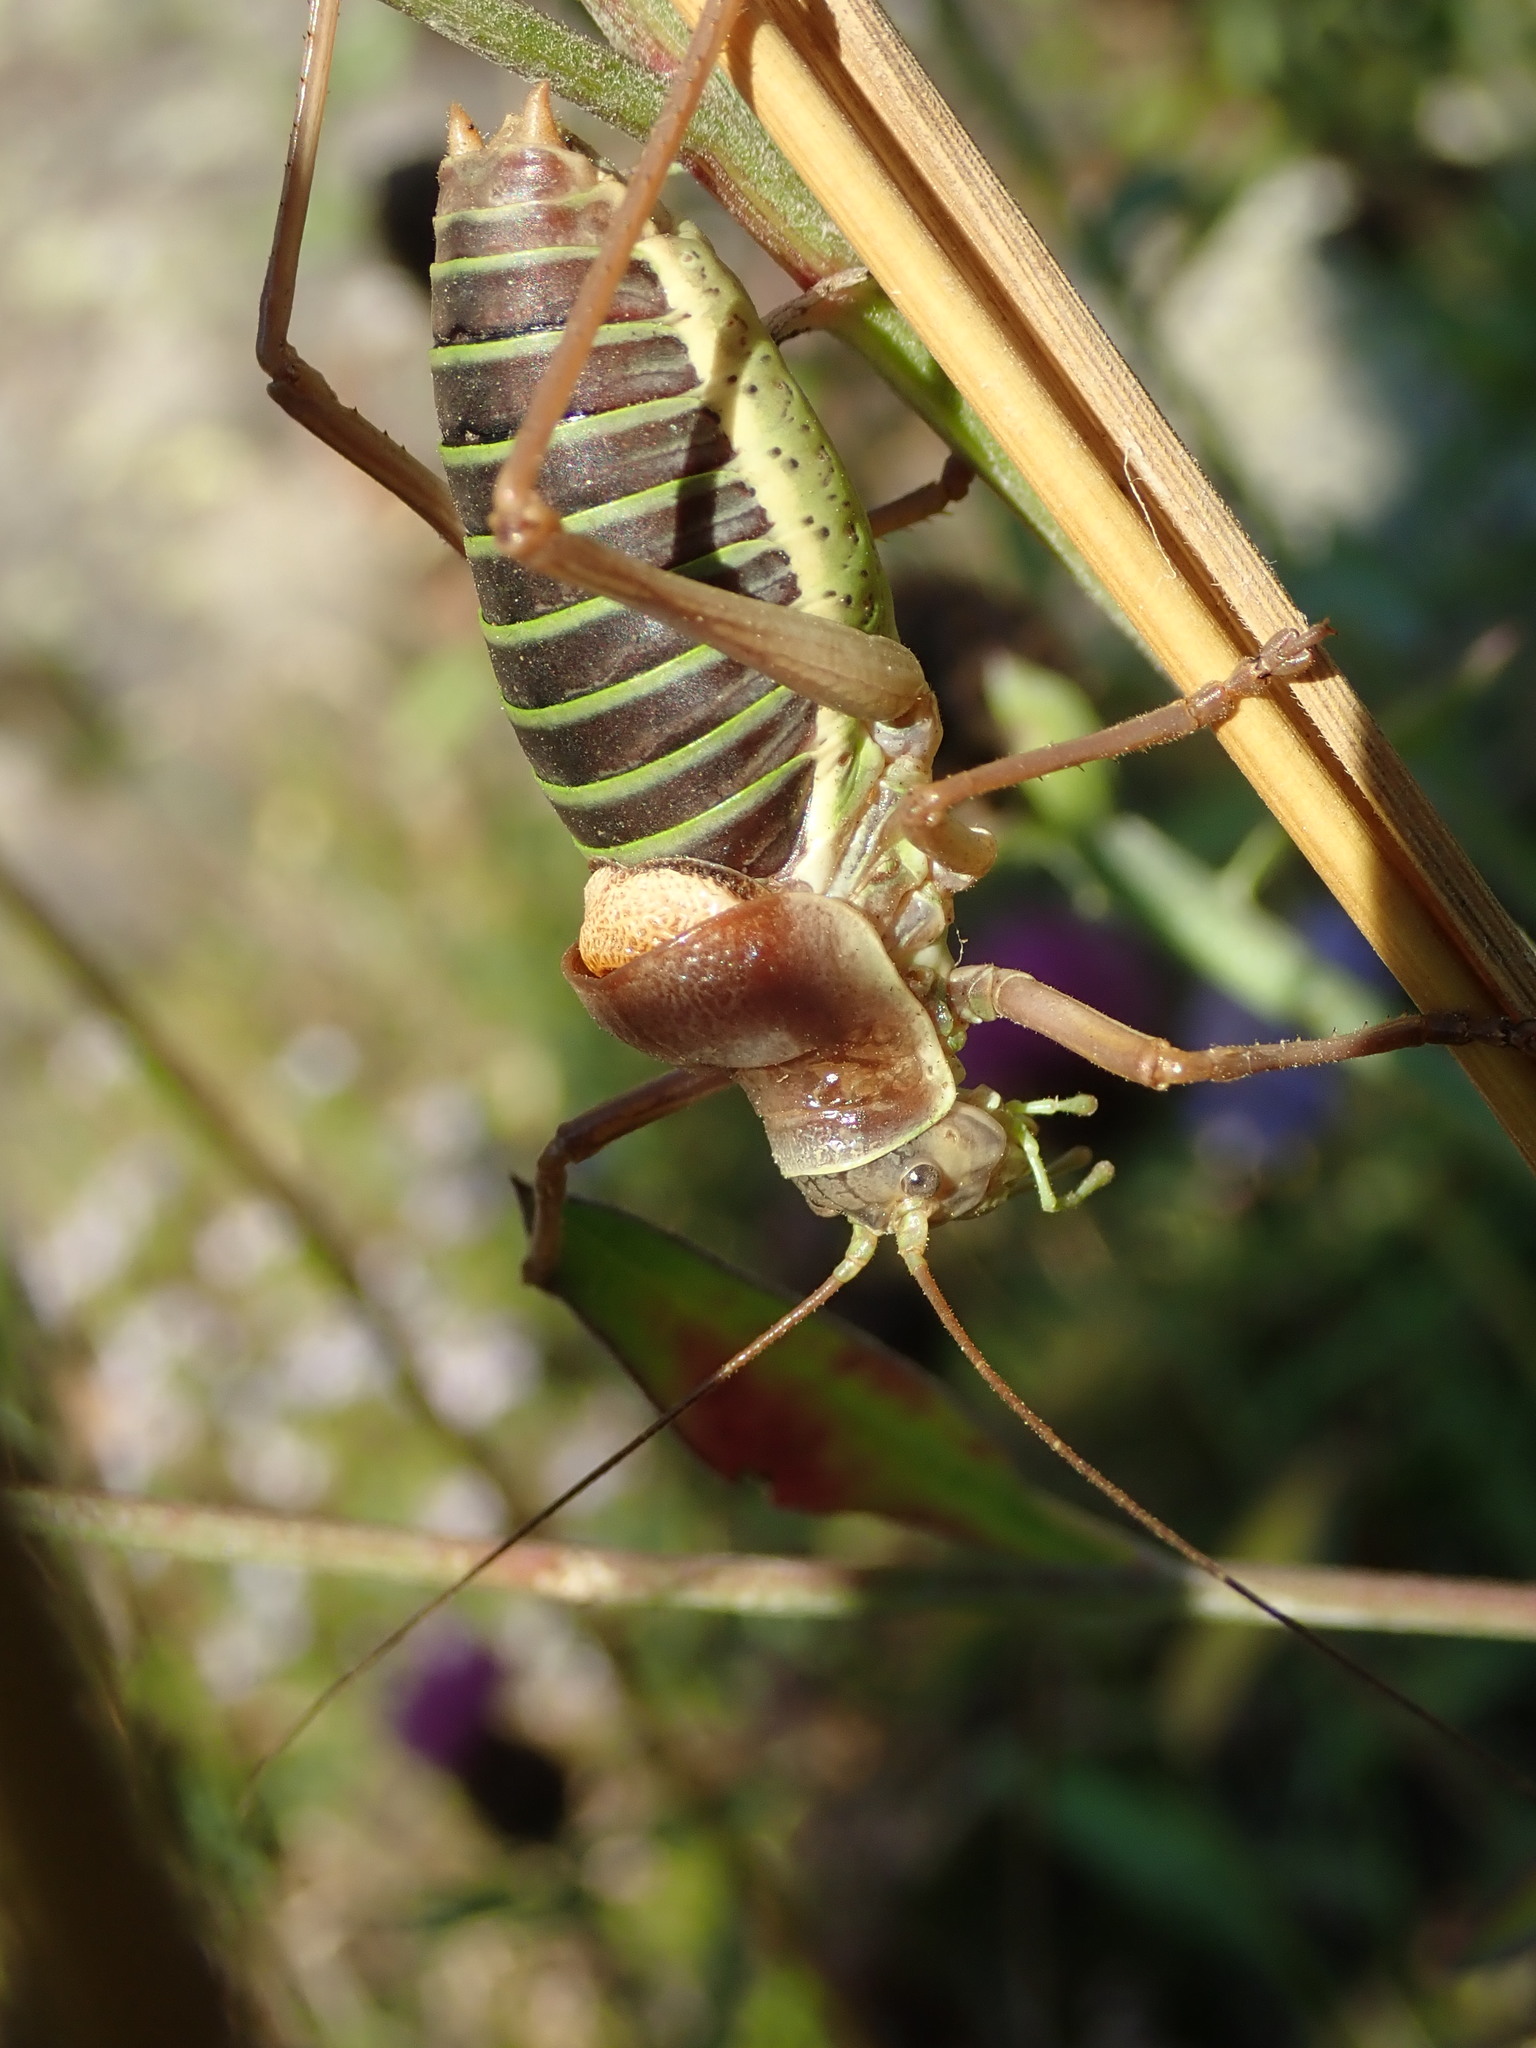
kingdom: Animalia
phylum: Arthropoda
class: Insecta
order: Orthoptera
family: Tettigoniidae
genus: Ephippiger
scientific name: Ephippiger diurnus
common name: Western saddle bush-cricket
